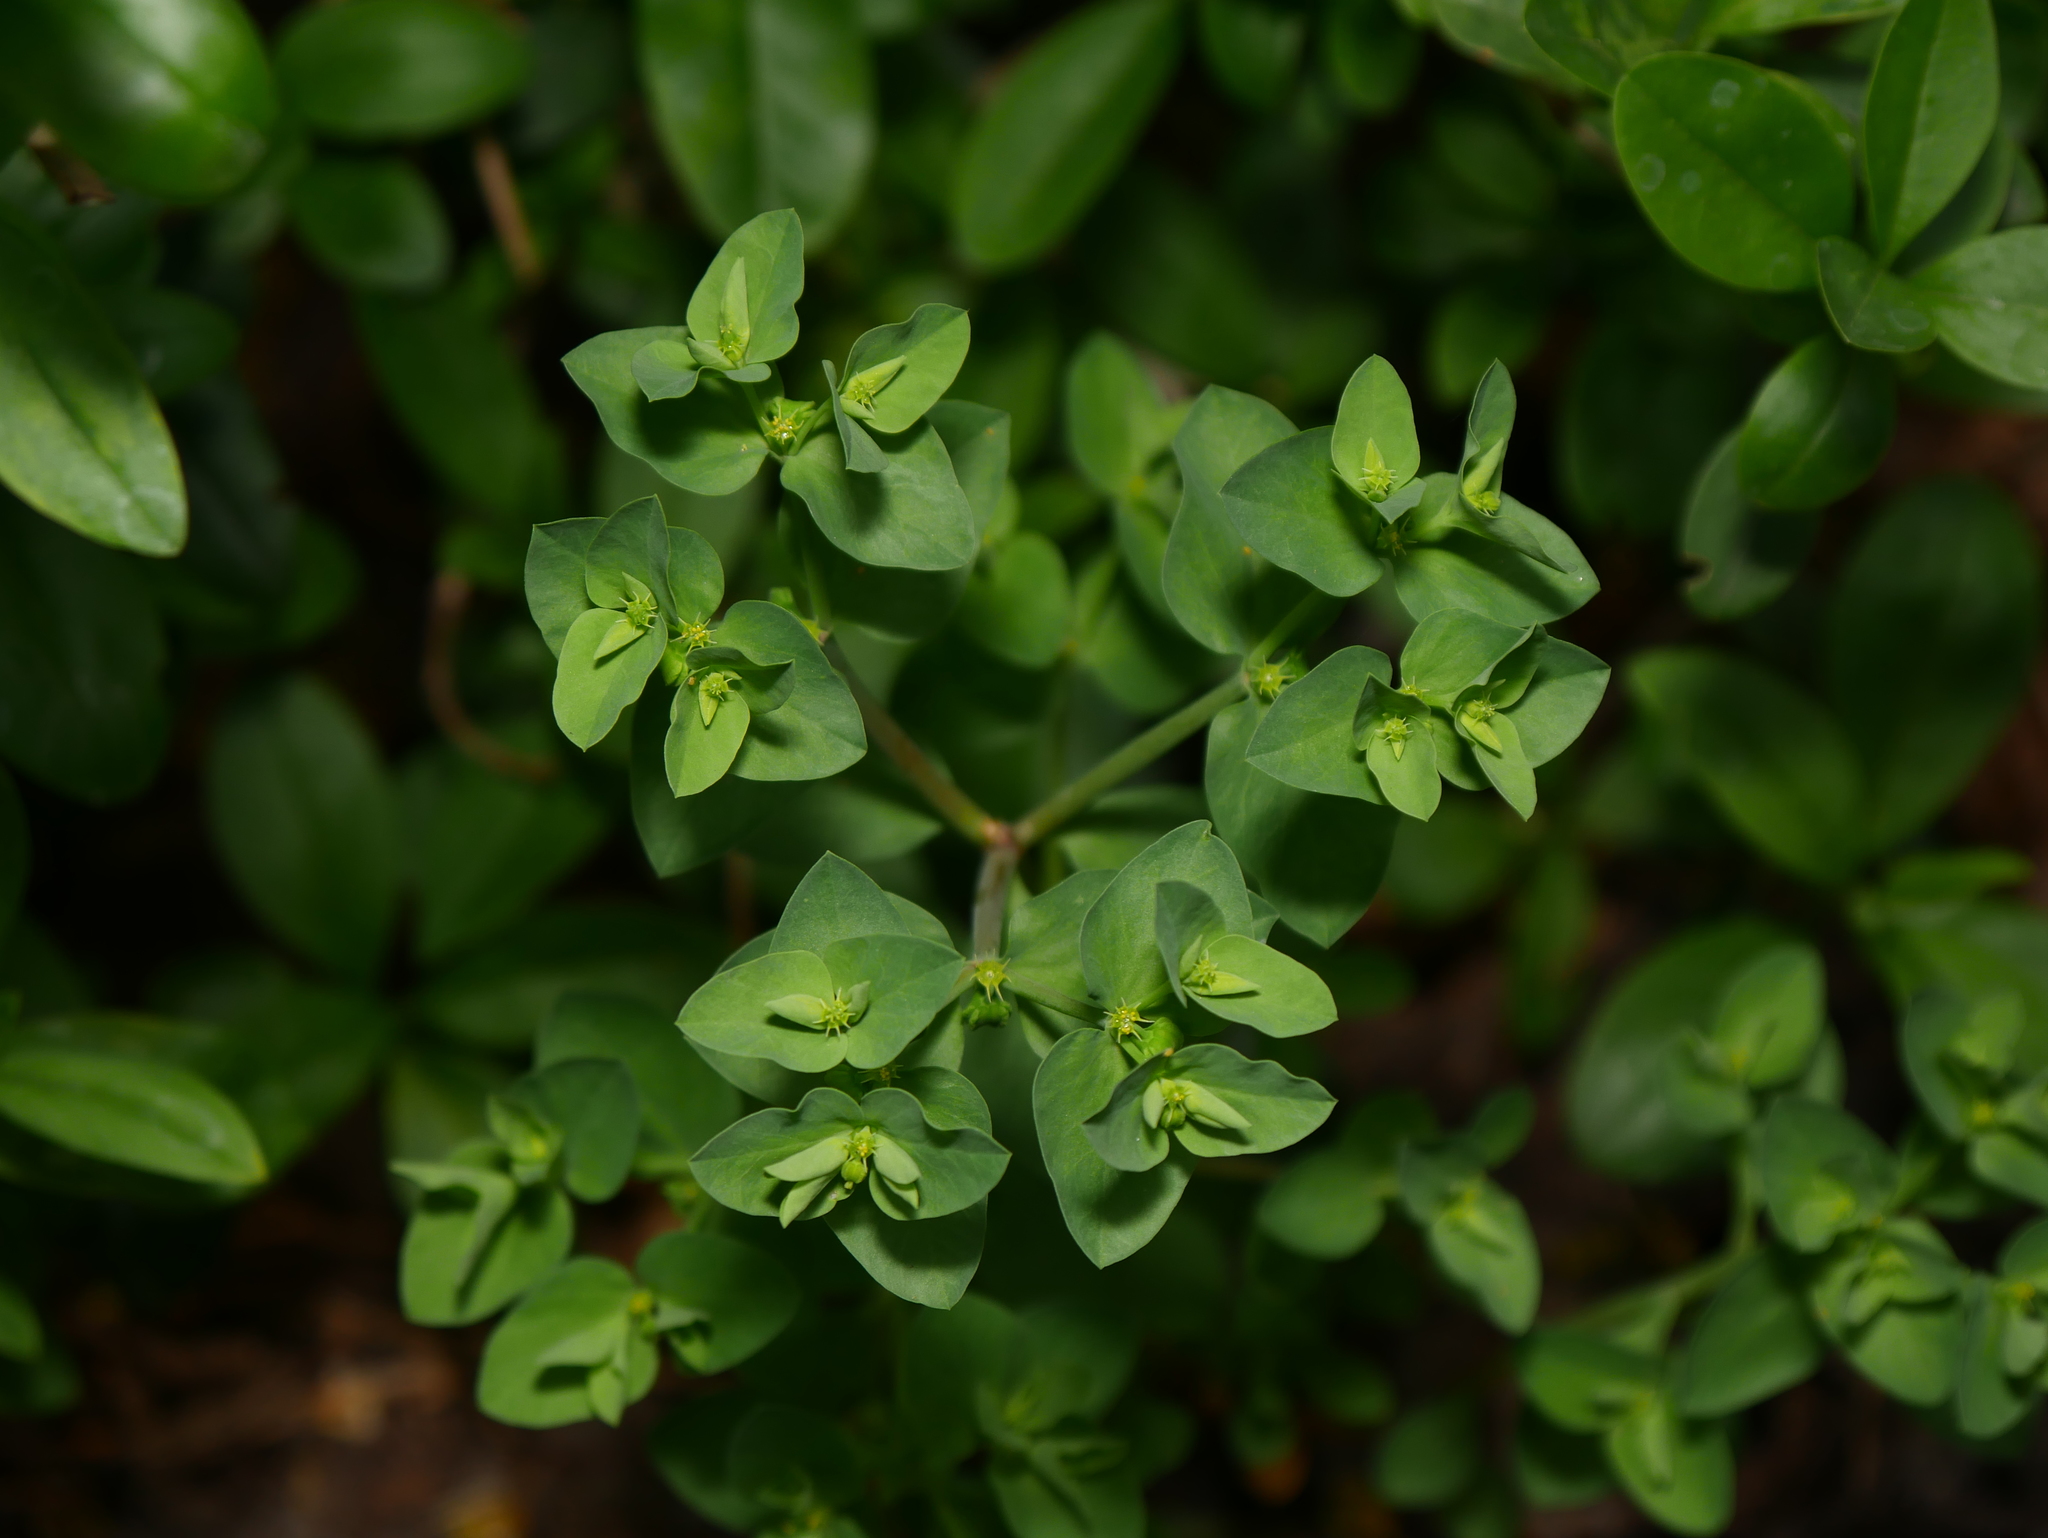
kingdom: Plantae
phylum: Tracheophyta
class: Magnoliopsida
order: Malpighiales
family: Euphorbiaceae
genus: Euphorbia
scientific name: Euphorbia peplus
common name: Petty spurge
